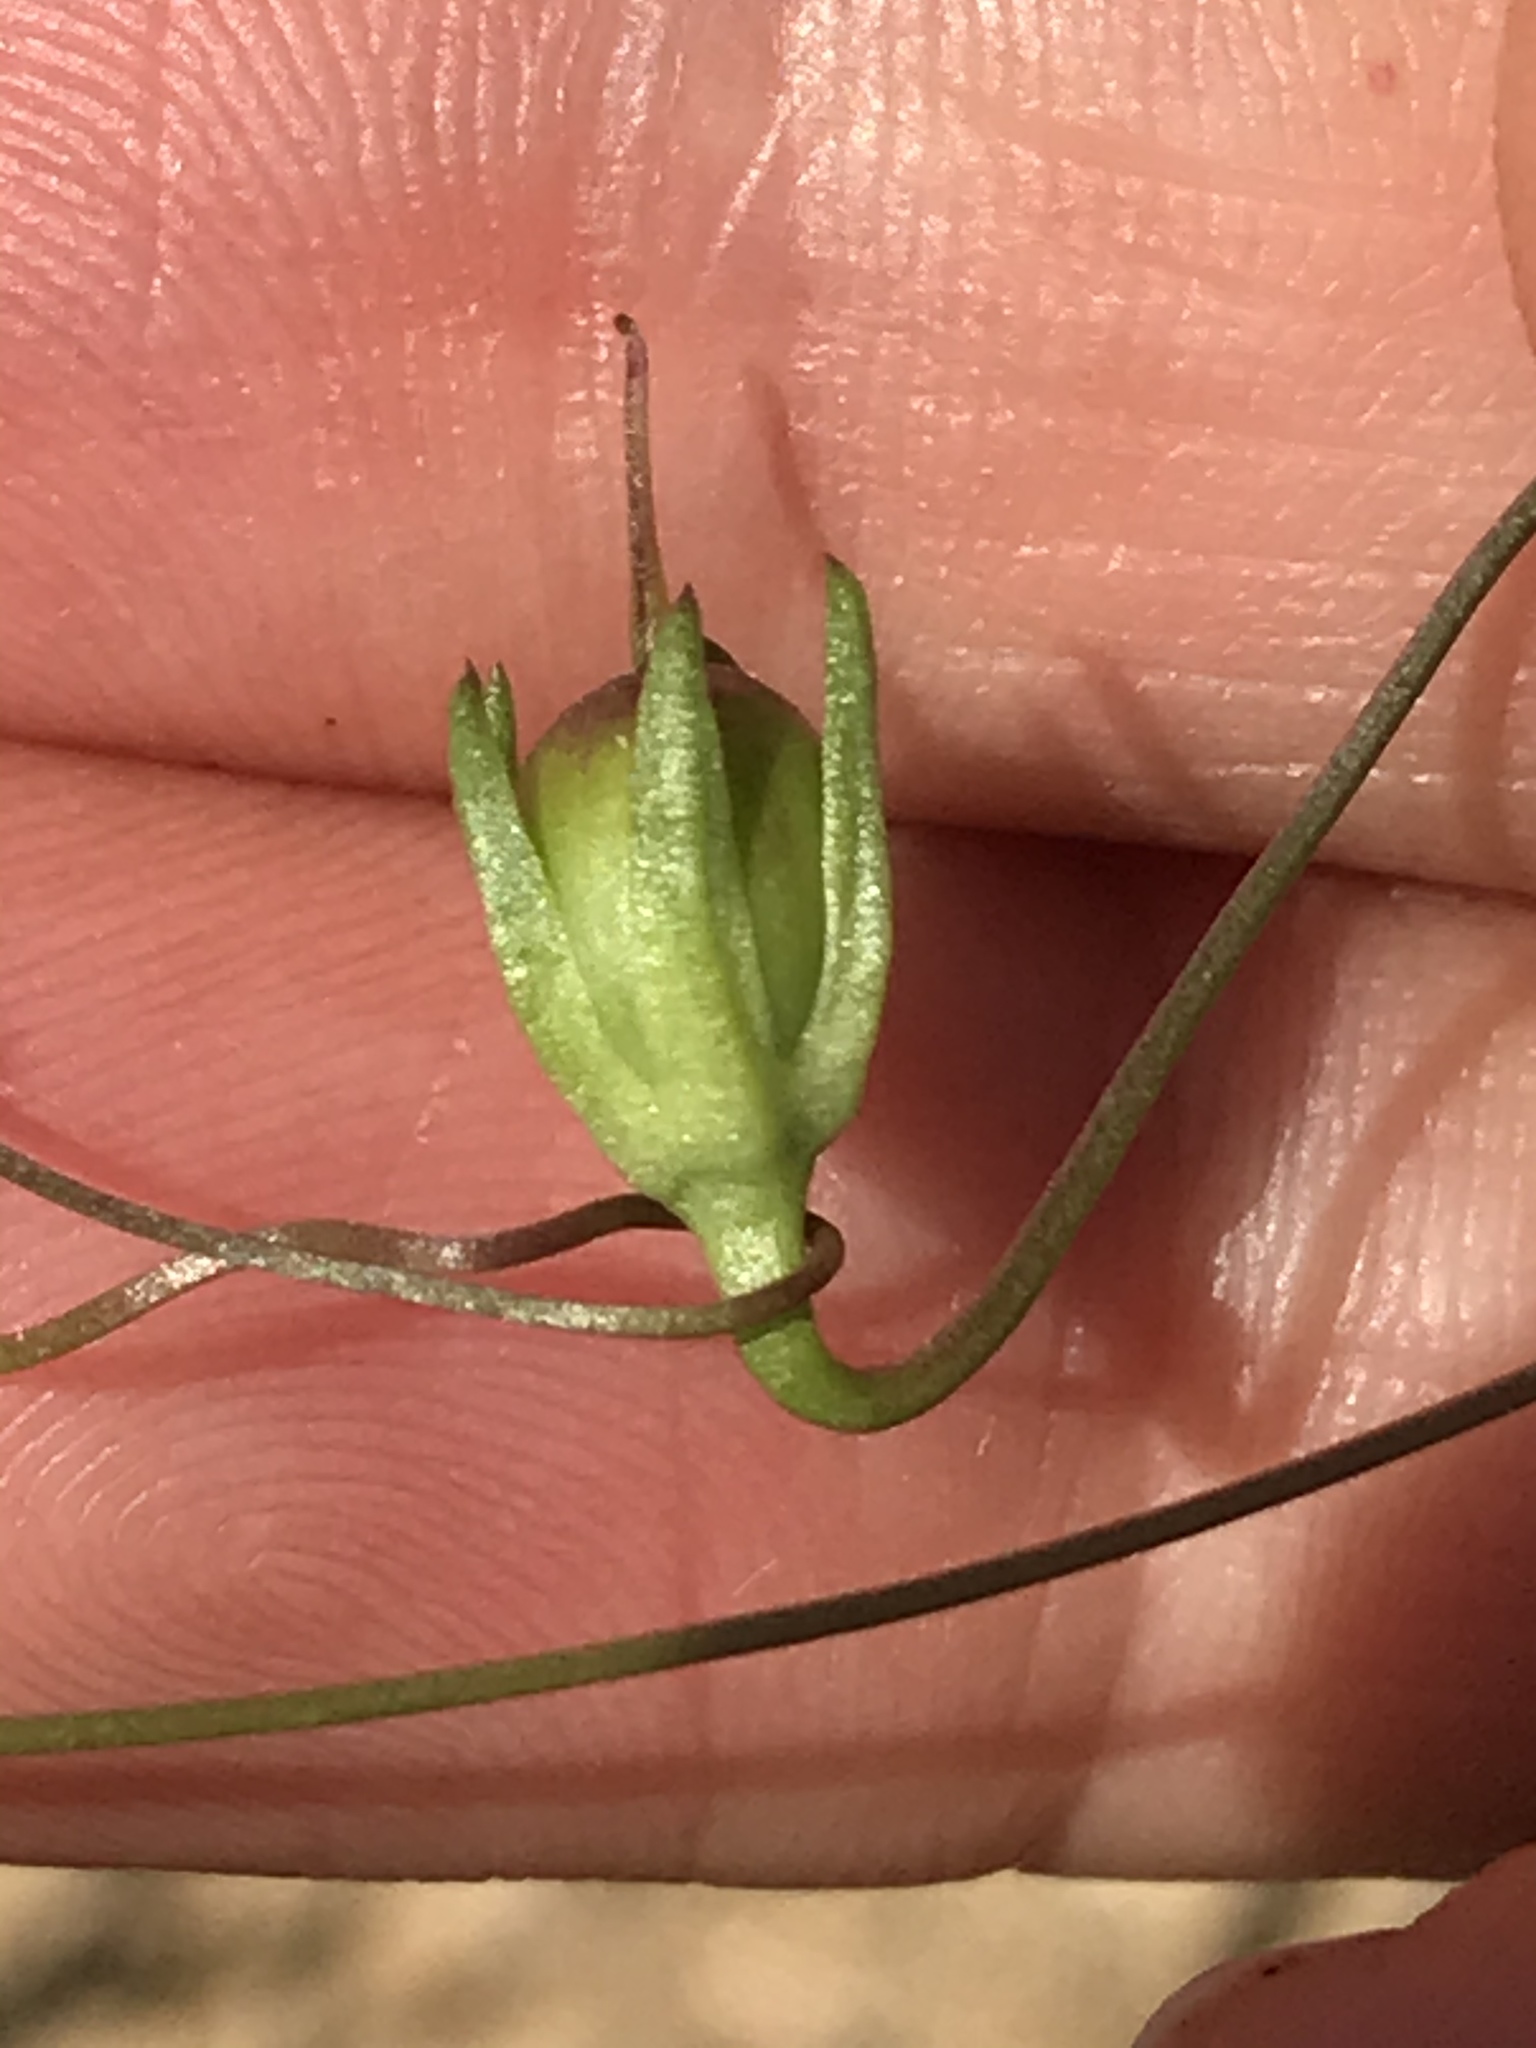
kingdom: Plantae
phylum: Tracheophyta
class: Magnoliopsida
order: Lamiales
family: Plantaginaceae
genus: Neogaerrhinum
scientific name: Neogaerrhinum strictum
